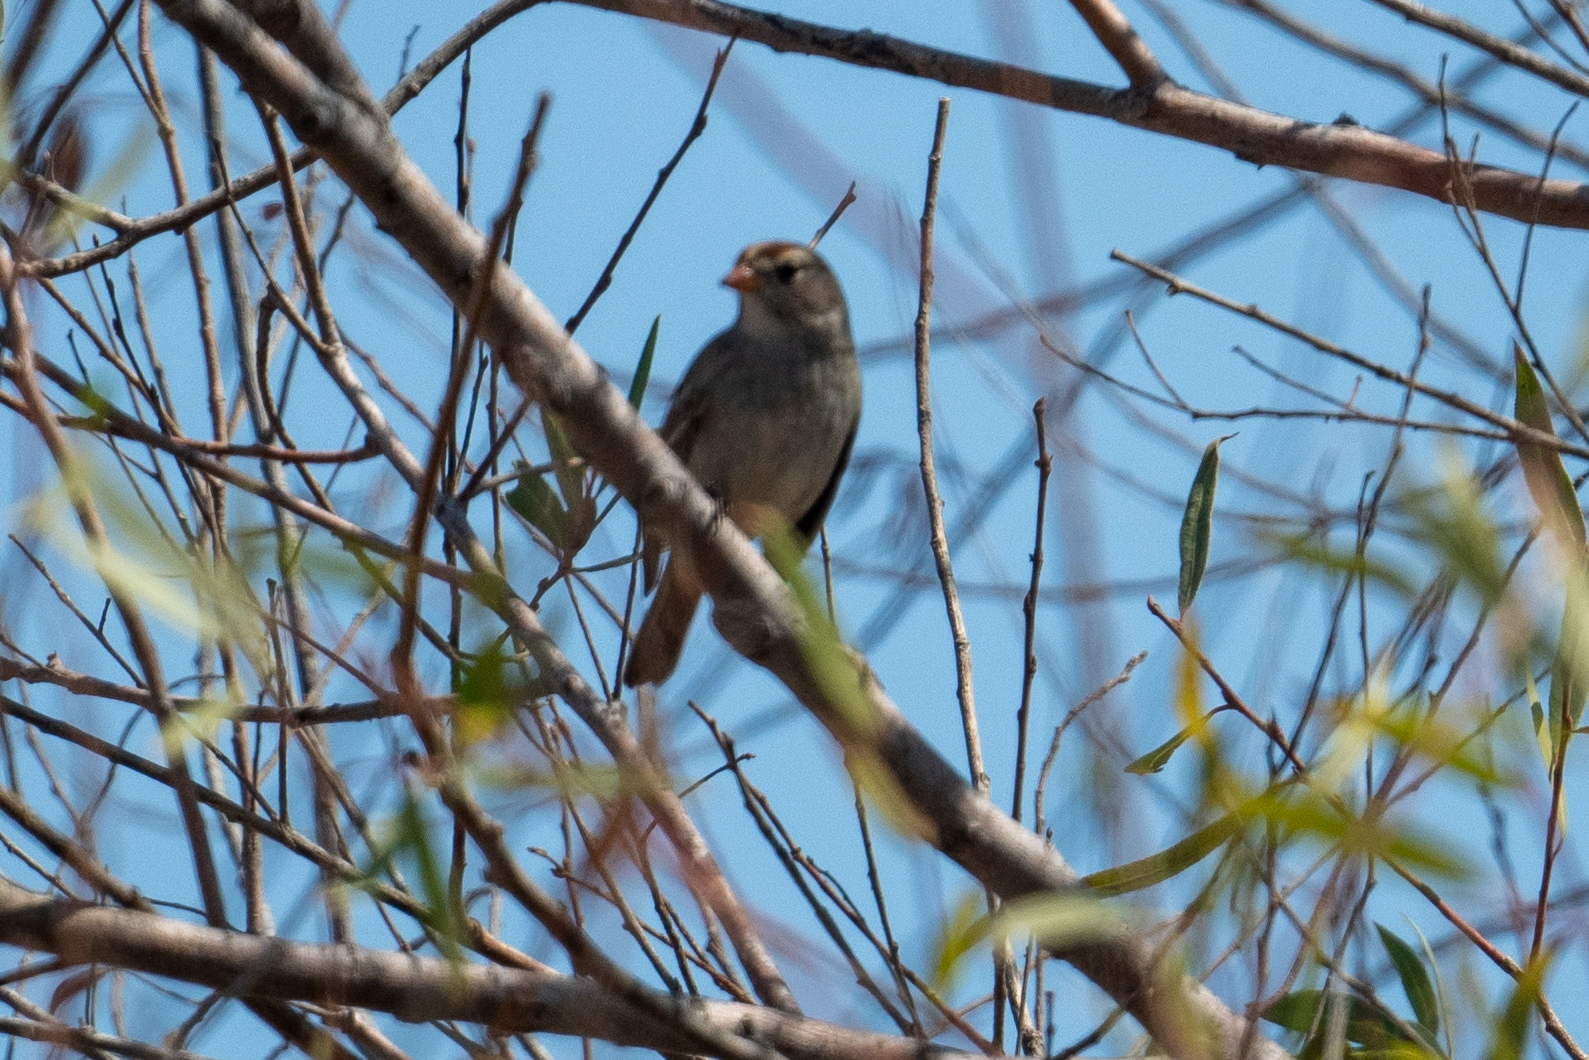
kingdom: Animalia
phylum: Chordata
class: Aves
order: Passeriformes
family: Passerellidae
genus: Zonotrichia
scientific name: Zonotrichia leucophrys
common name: White-crowned sparrow
